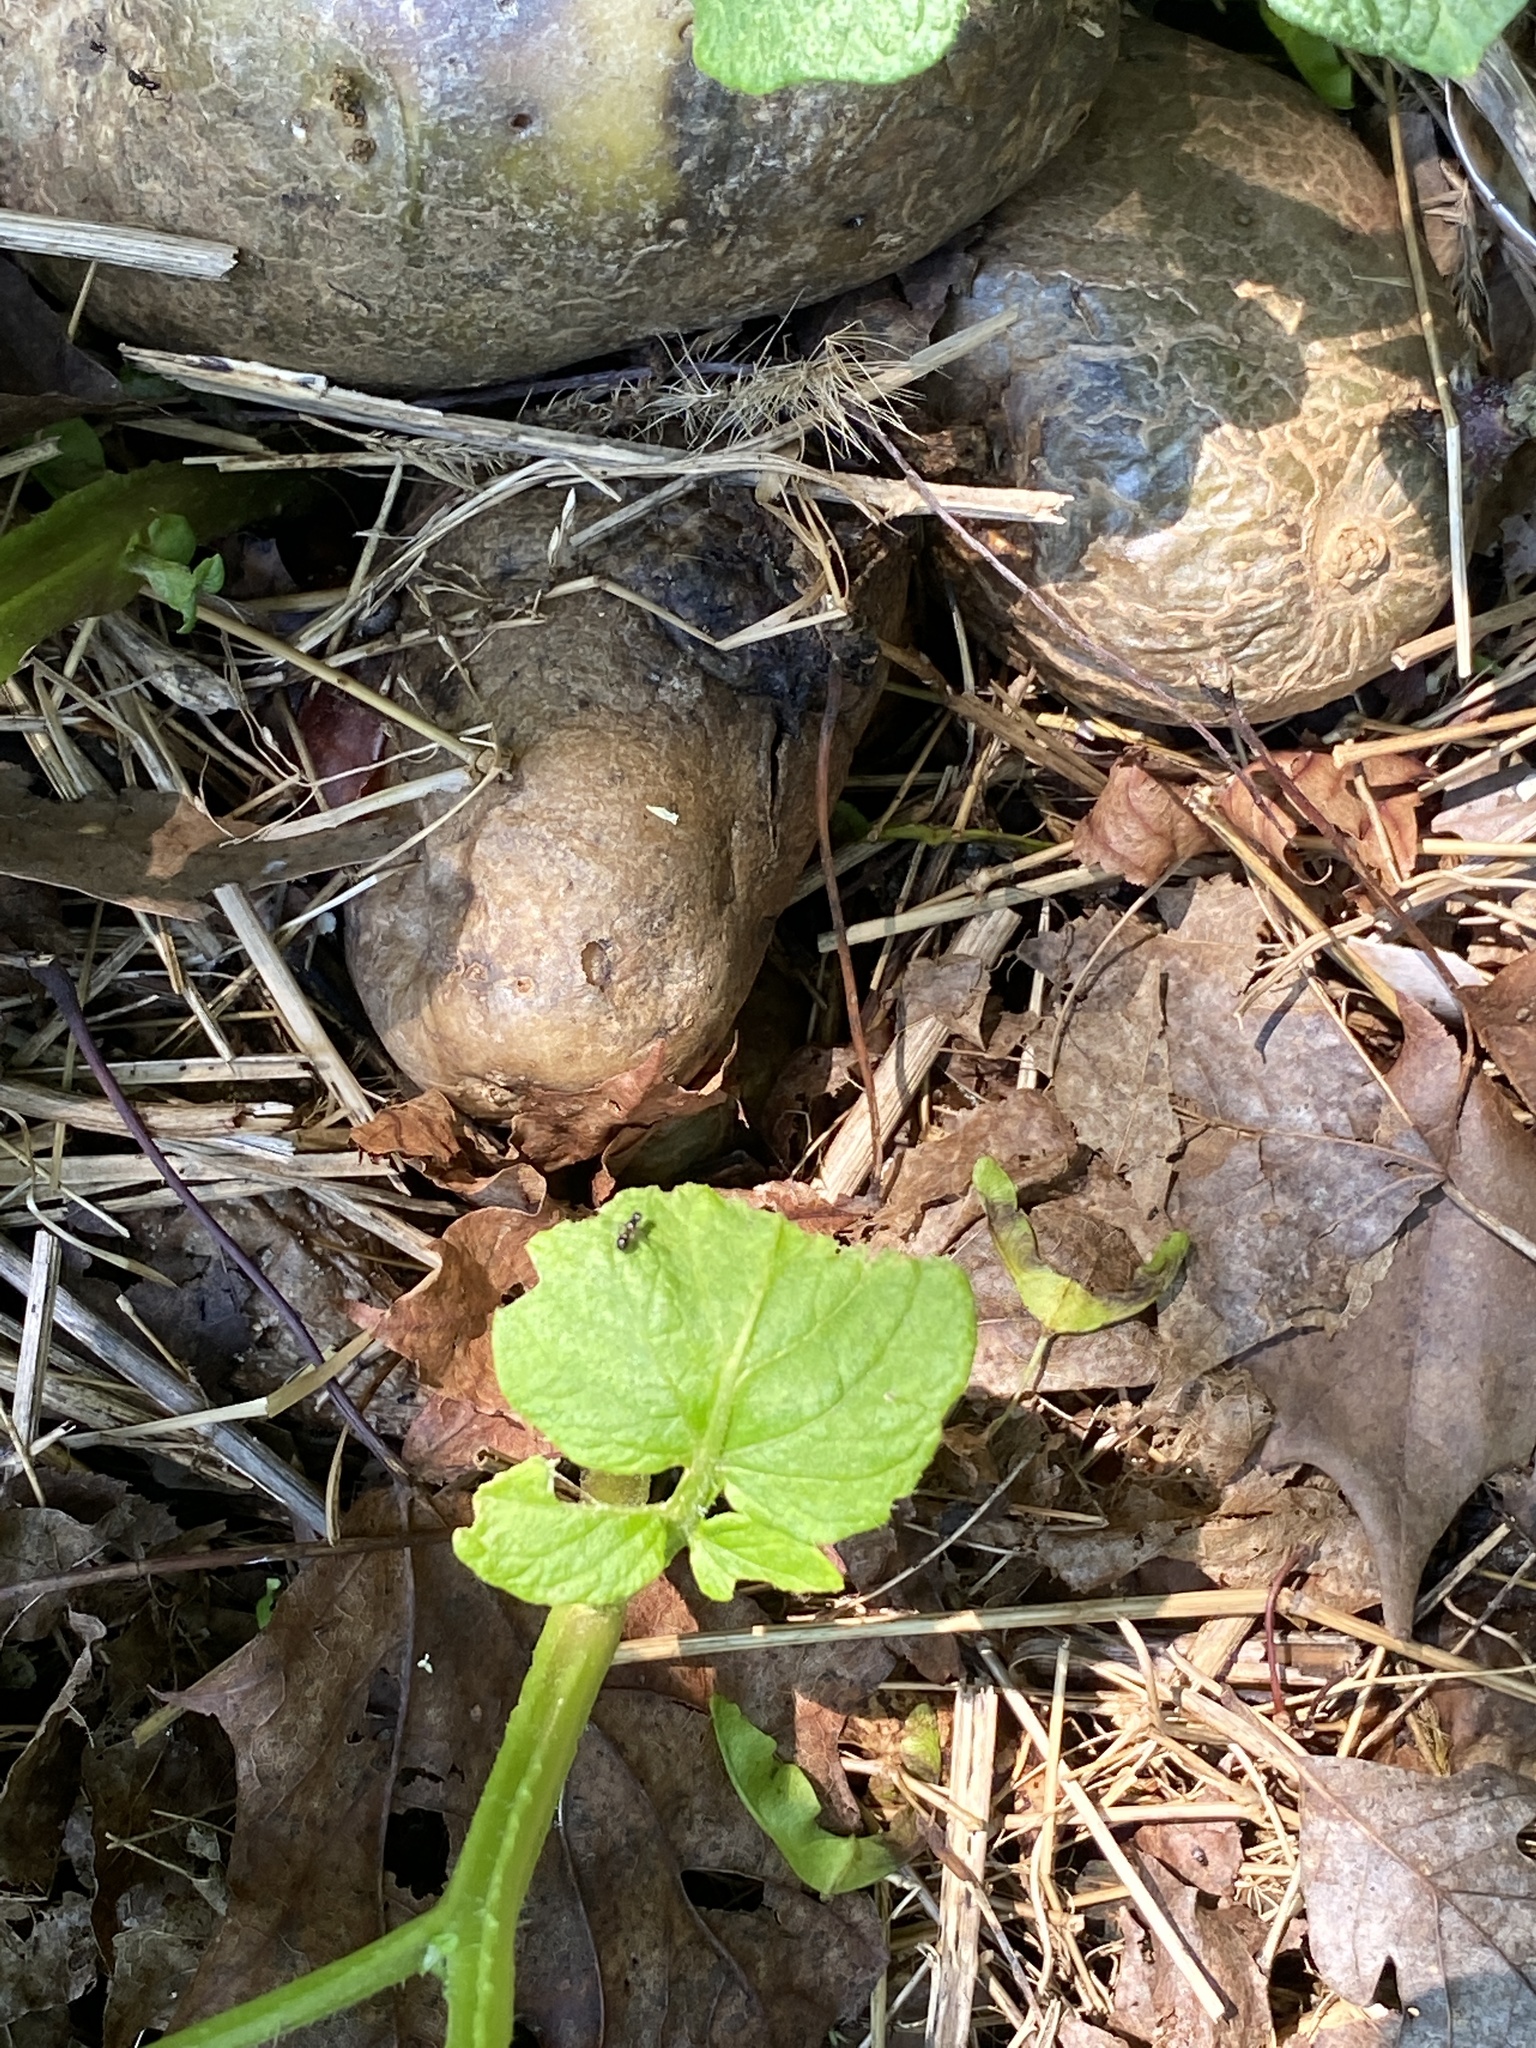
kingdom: Plantae
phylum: Tracheophyta
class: Magnoliopsida
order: Solanales
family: Solanaceae
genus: Solanum
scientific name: Solanum tuberosum
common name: Potato
